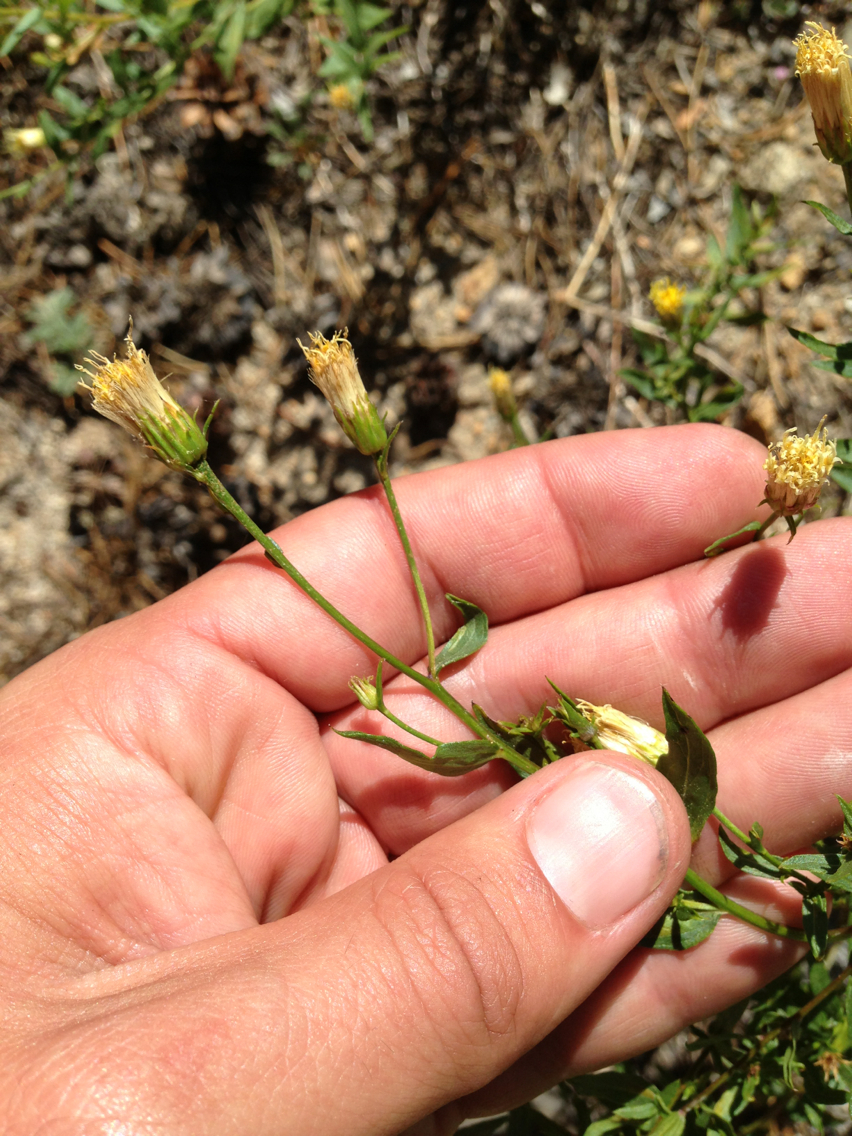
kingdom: Plantae
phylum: Tracheophyta
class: Magnoliopsida
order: Asterales
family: Asteraceae
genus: Eucephalus
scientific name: Eucephalus breweri
